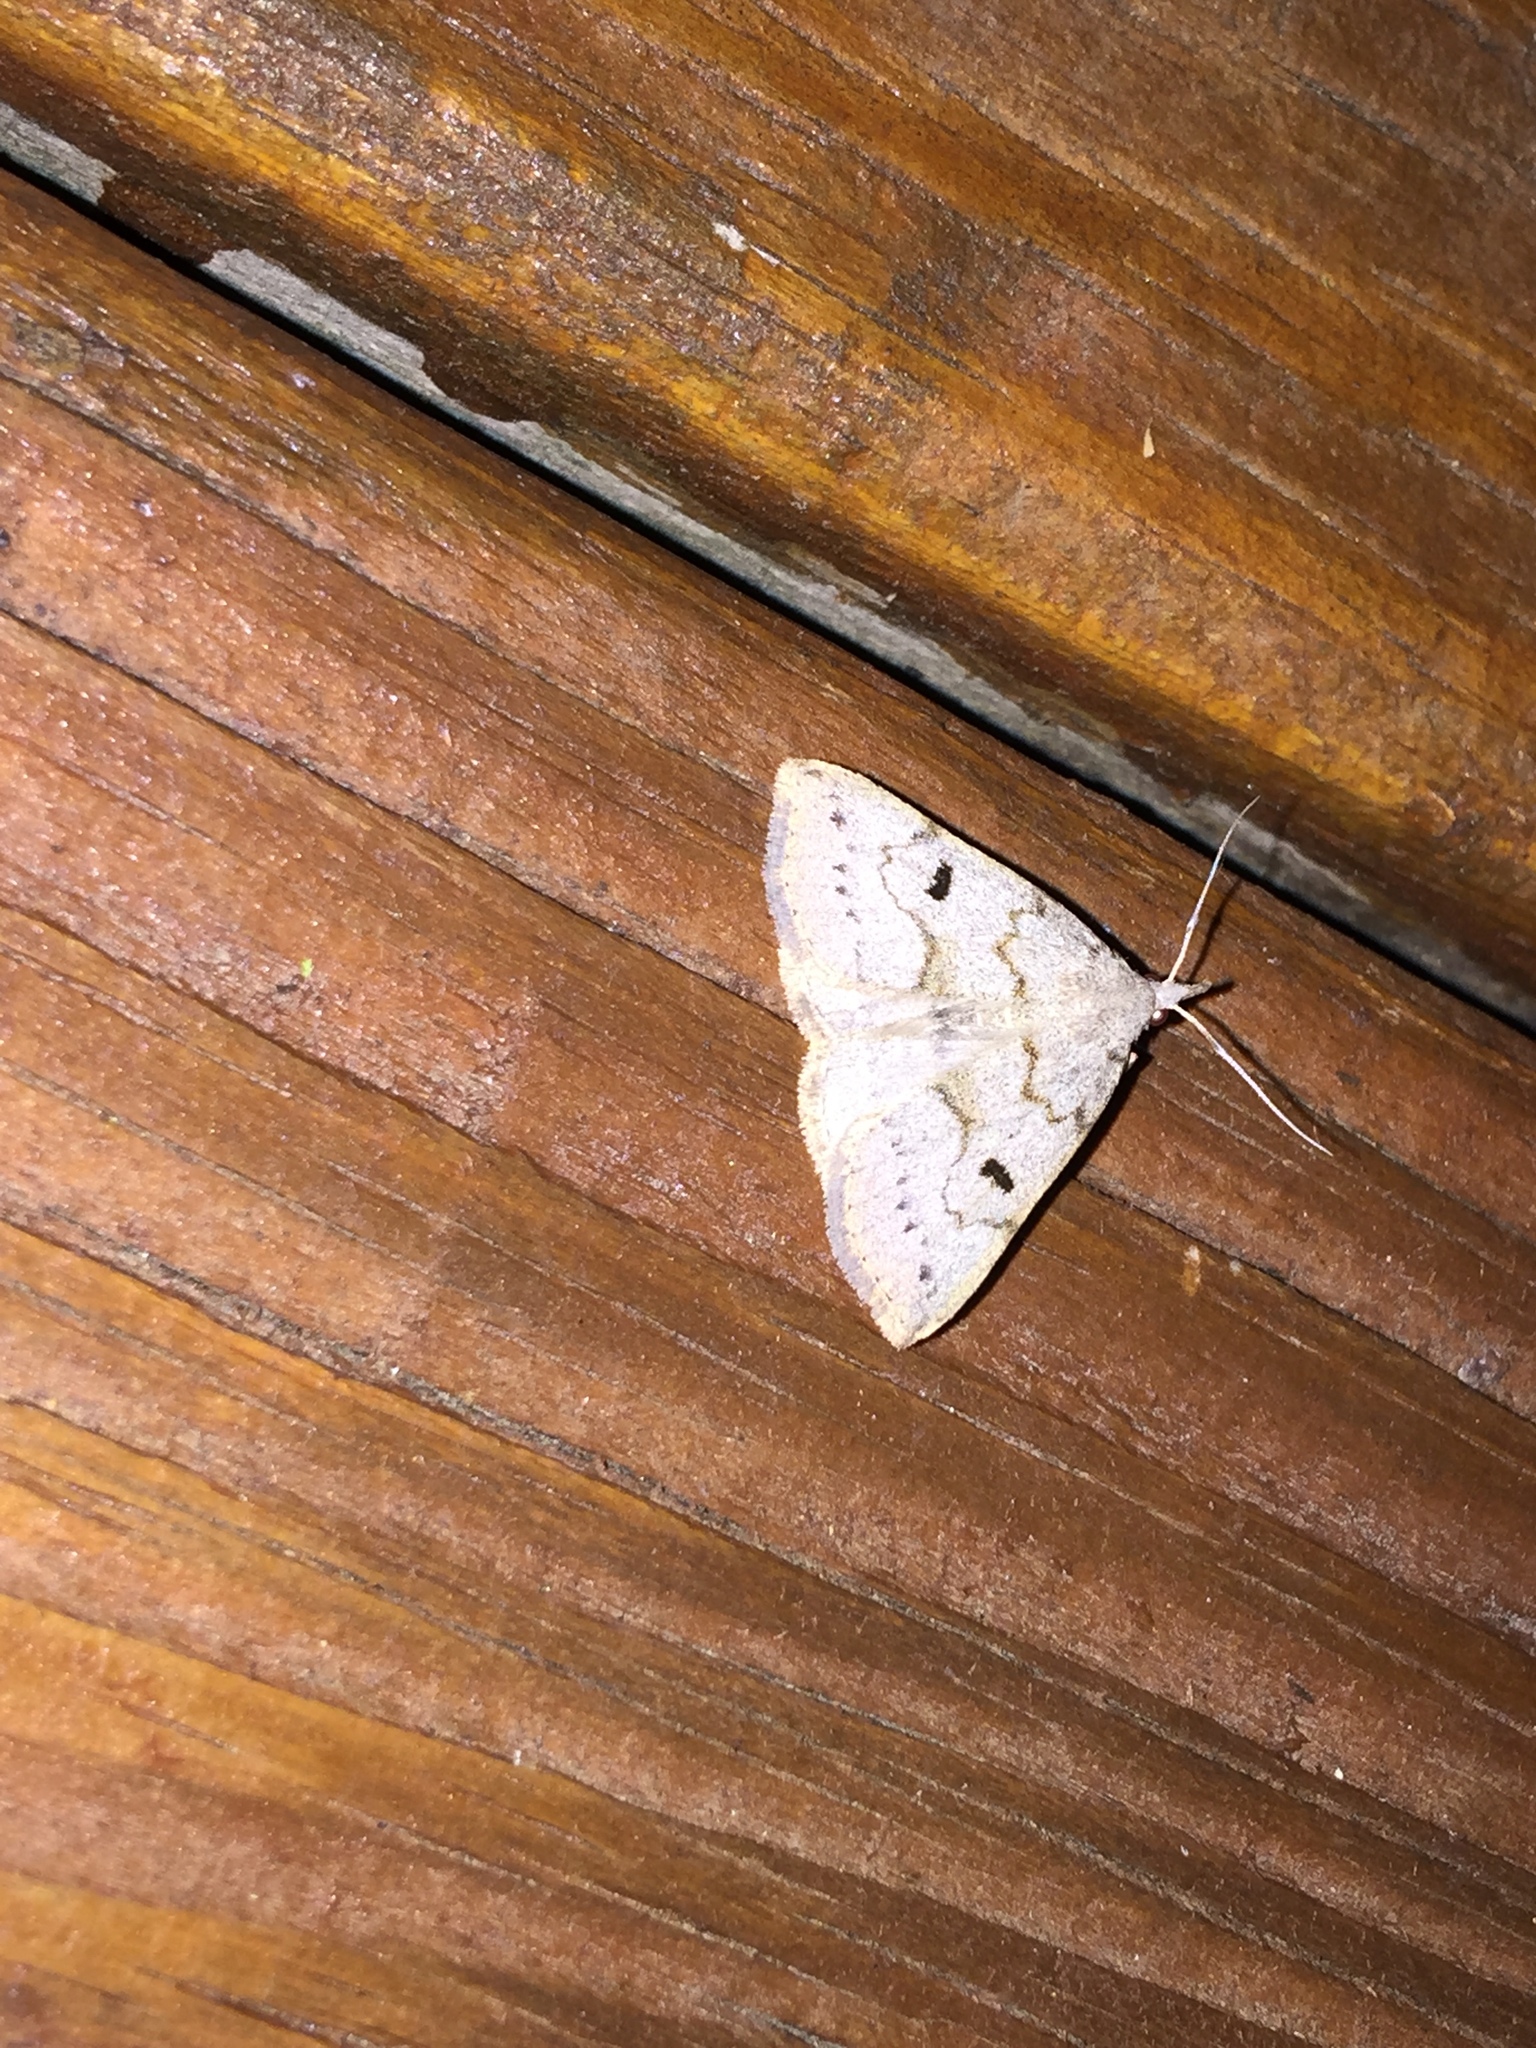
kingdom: Animalia
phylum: Arthropoda
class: Insecta
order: Lepidoptera
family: Erebidae
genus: Macrochilo
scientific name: Macrochilo morbidalis
